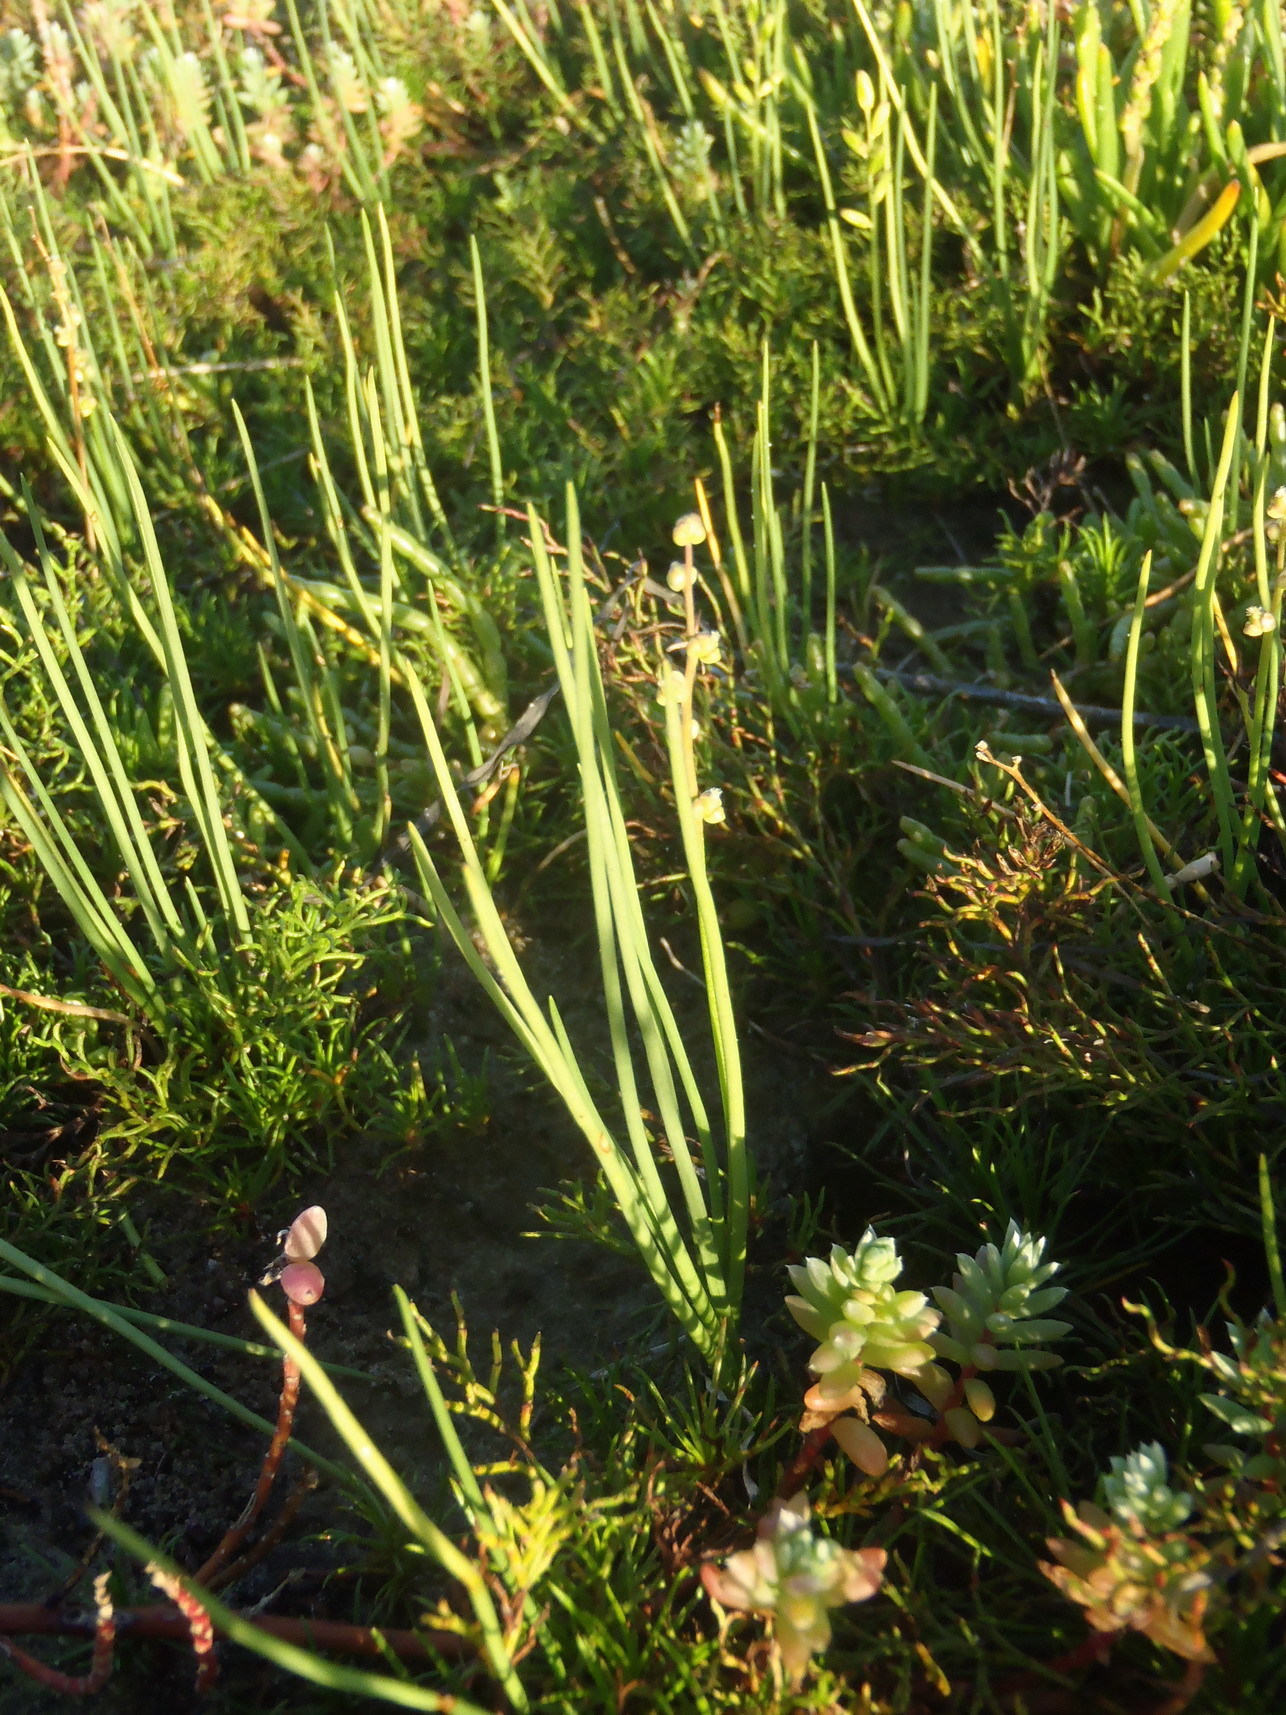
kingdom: Plantae
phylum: Tracheophyta
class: Liliopsida
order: Alismatales
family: Juncaginaceae
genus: Triglochin
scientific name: Triglochin striata
